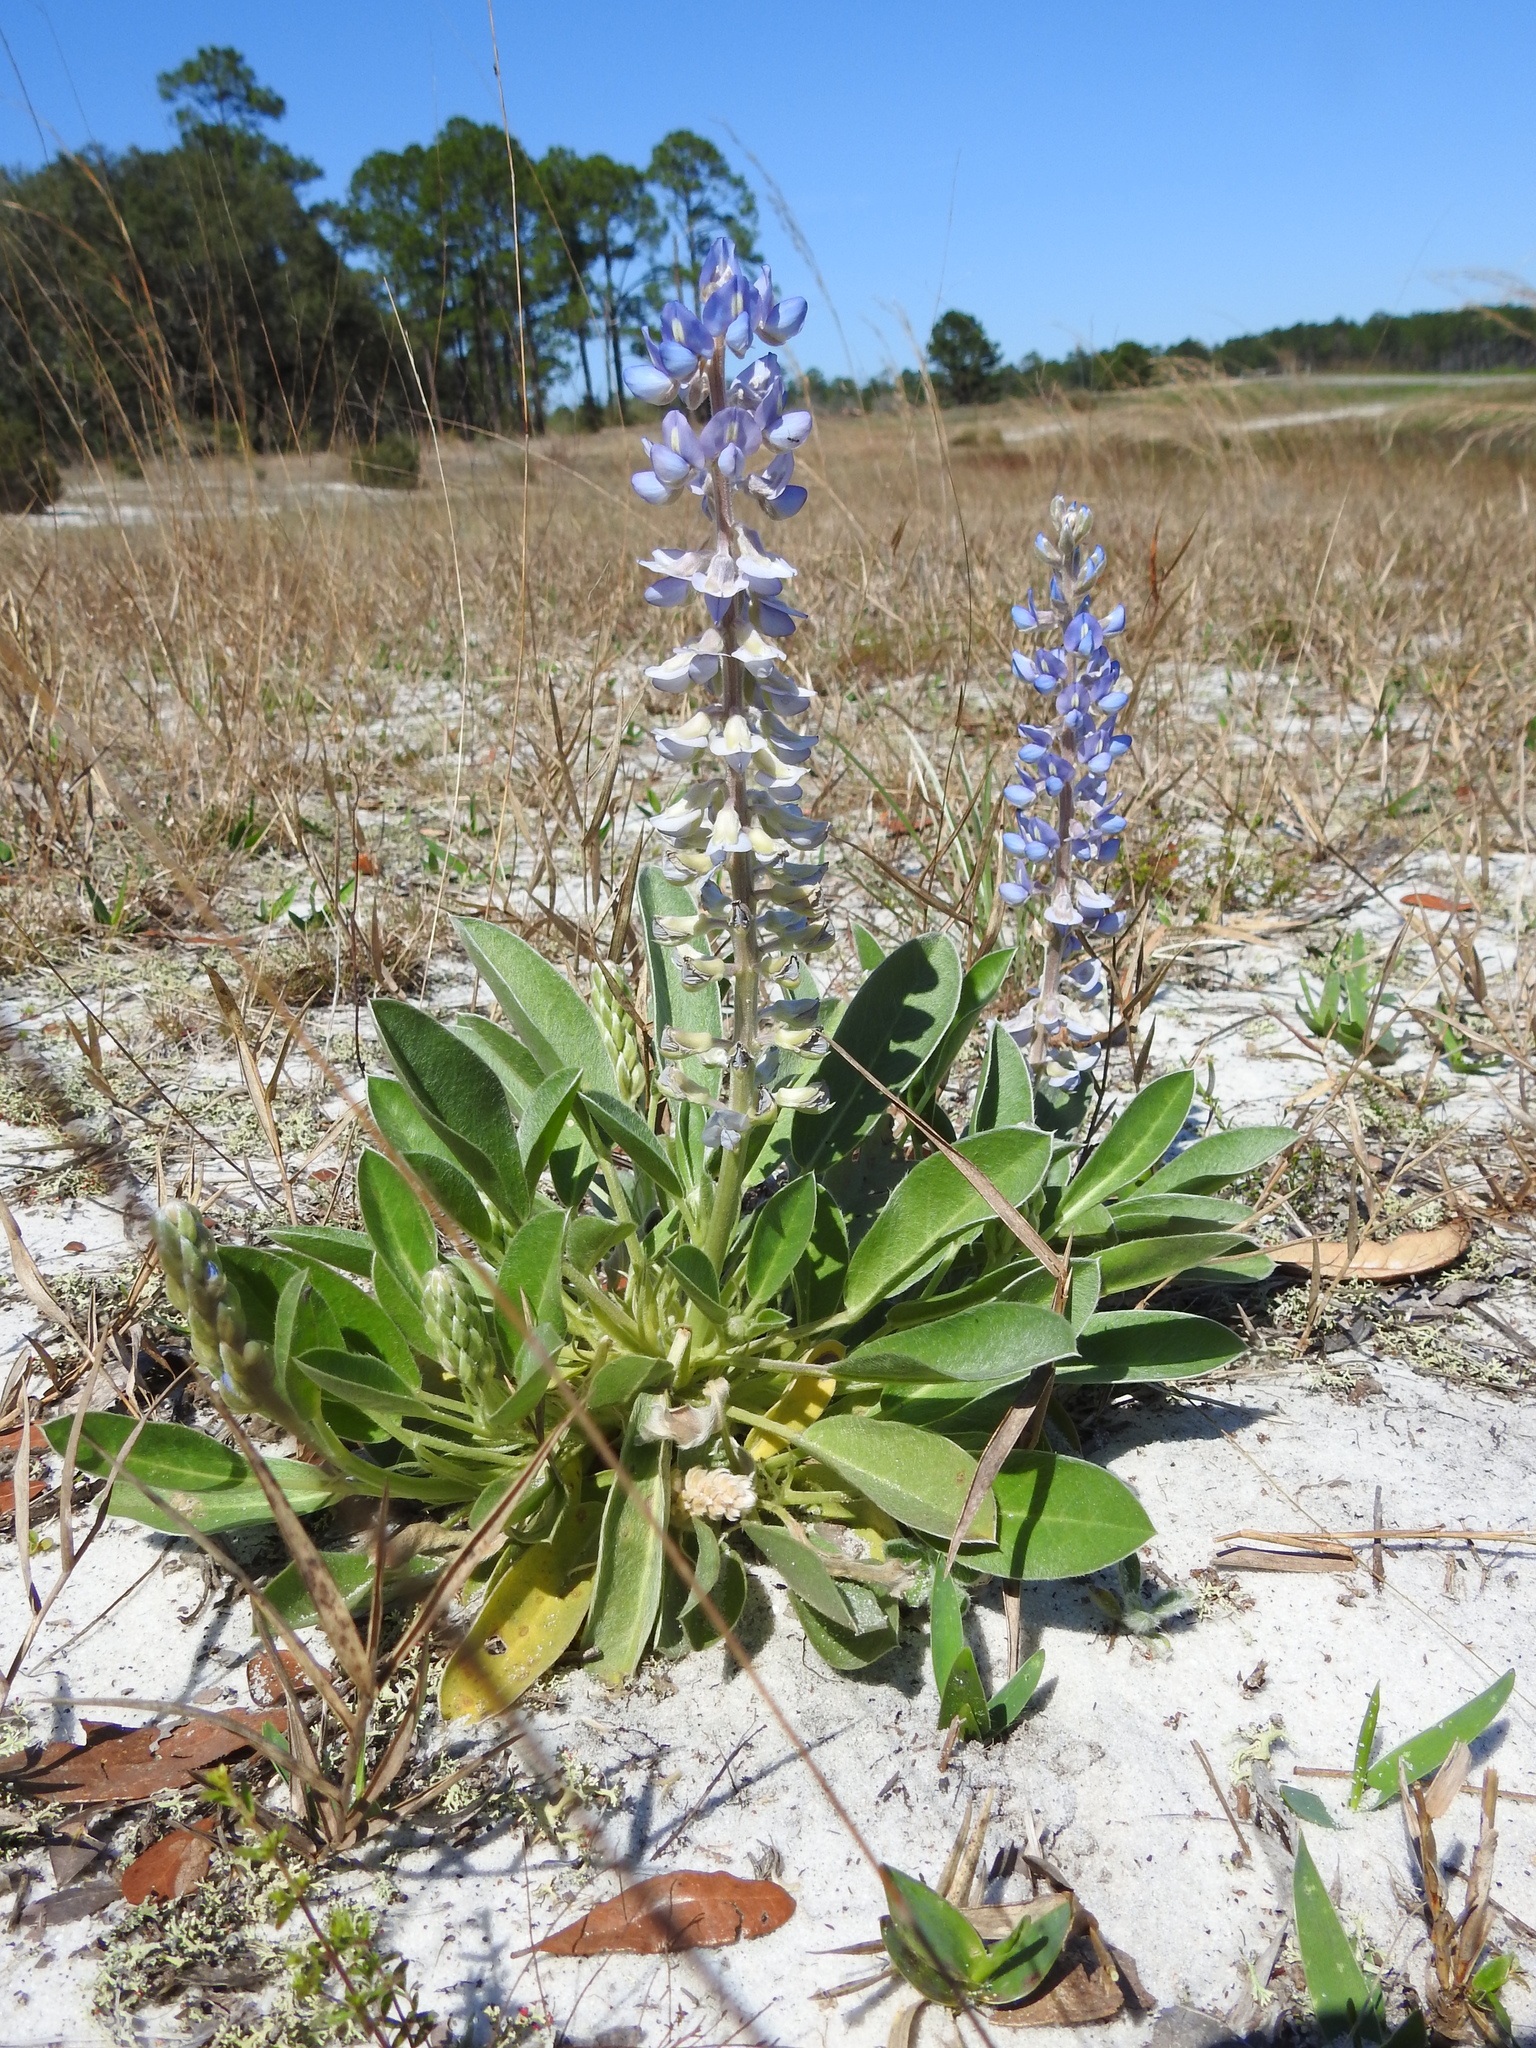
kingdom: Plantae
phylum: Tracheophyta
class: Magnoliopsida
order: Fabales
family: Fabaceae
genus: Lupinus
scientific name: Lupinus
